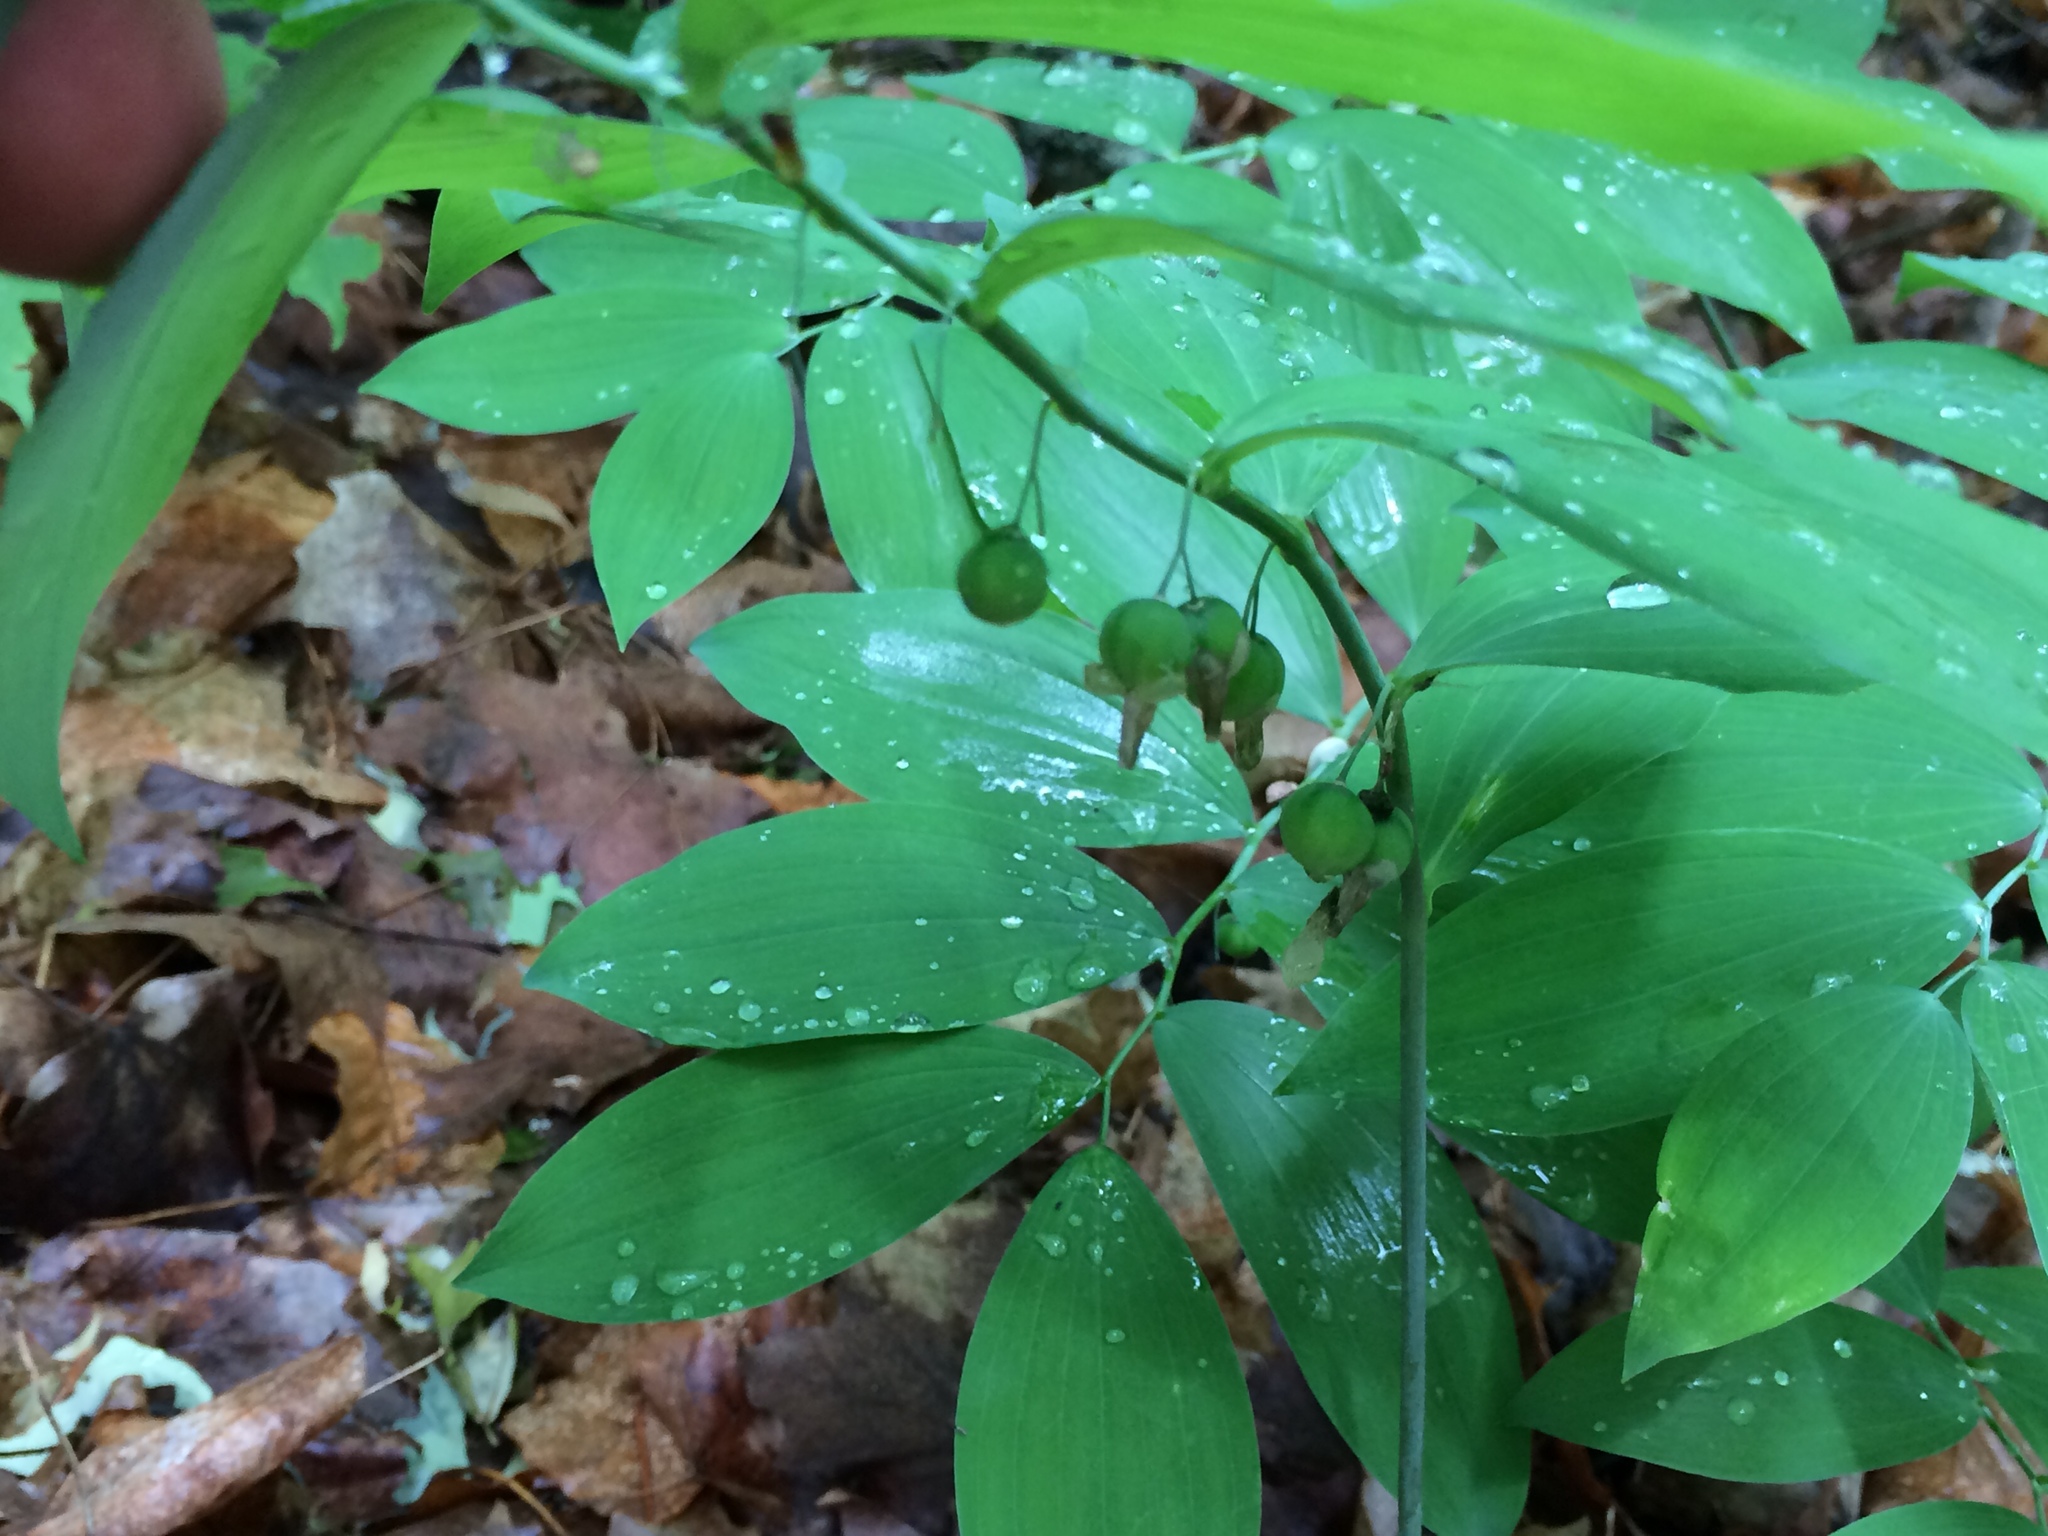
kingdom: Plantae
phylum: Tracheophyta
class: Liliopsida
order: Asparagales
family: Asparagaceae
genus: Polygonatum
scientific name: Polygonatum pubescens
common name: Downy solomon's seal
